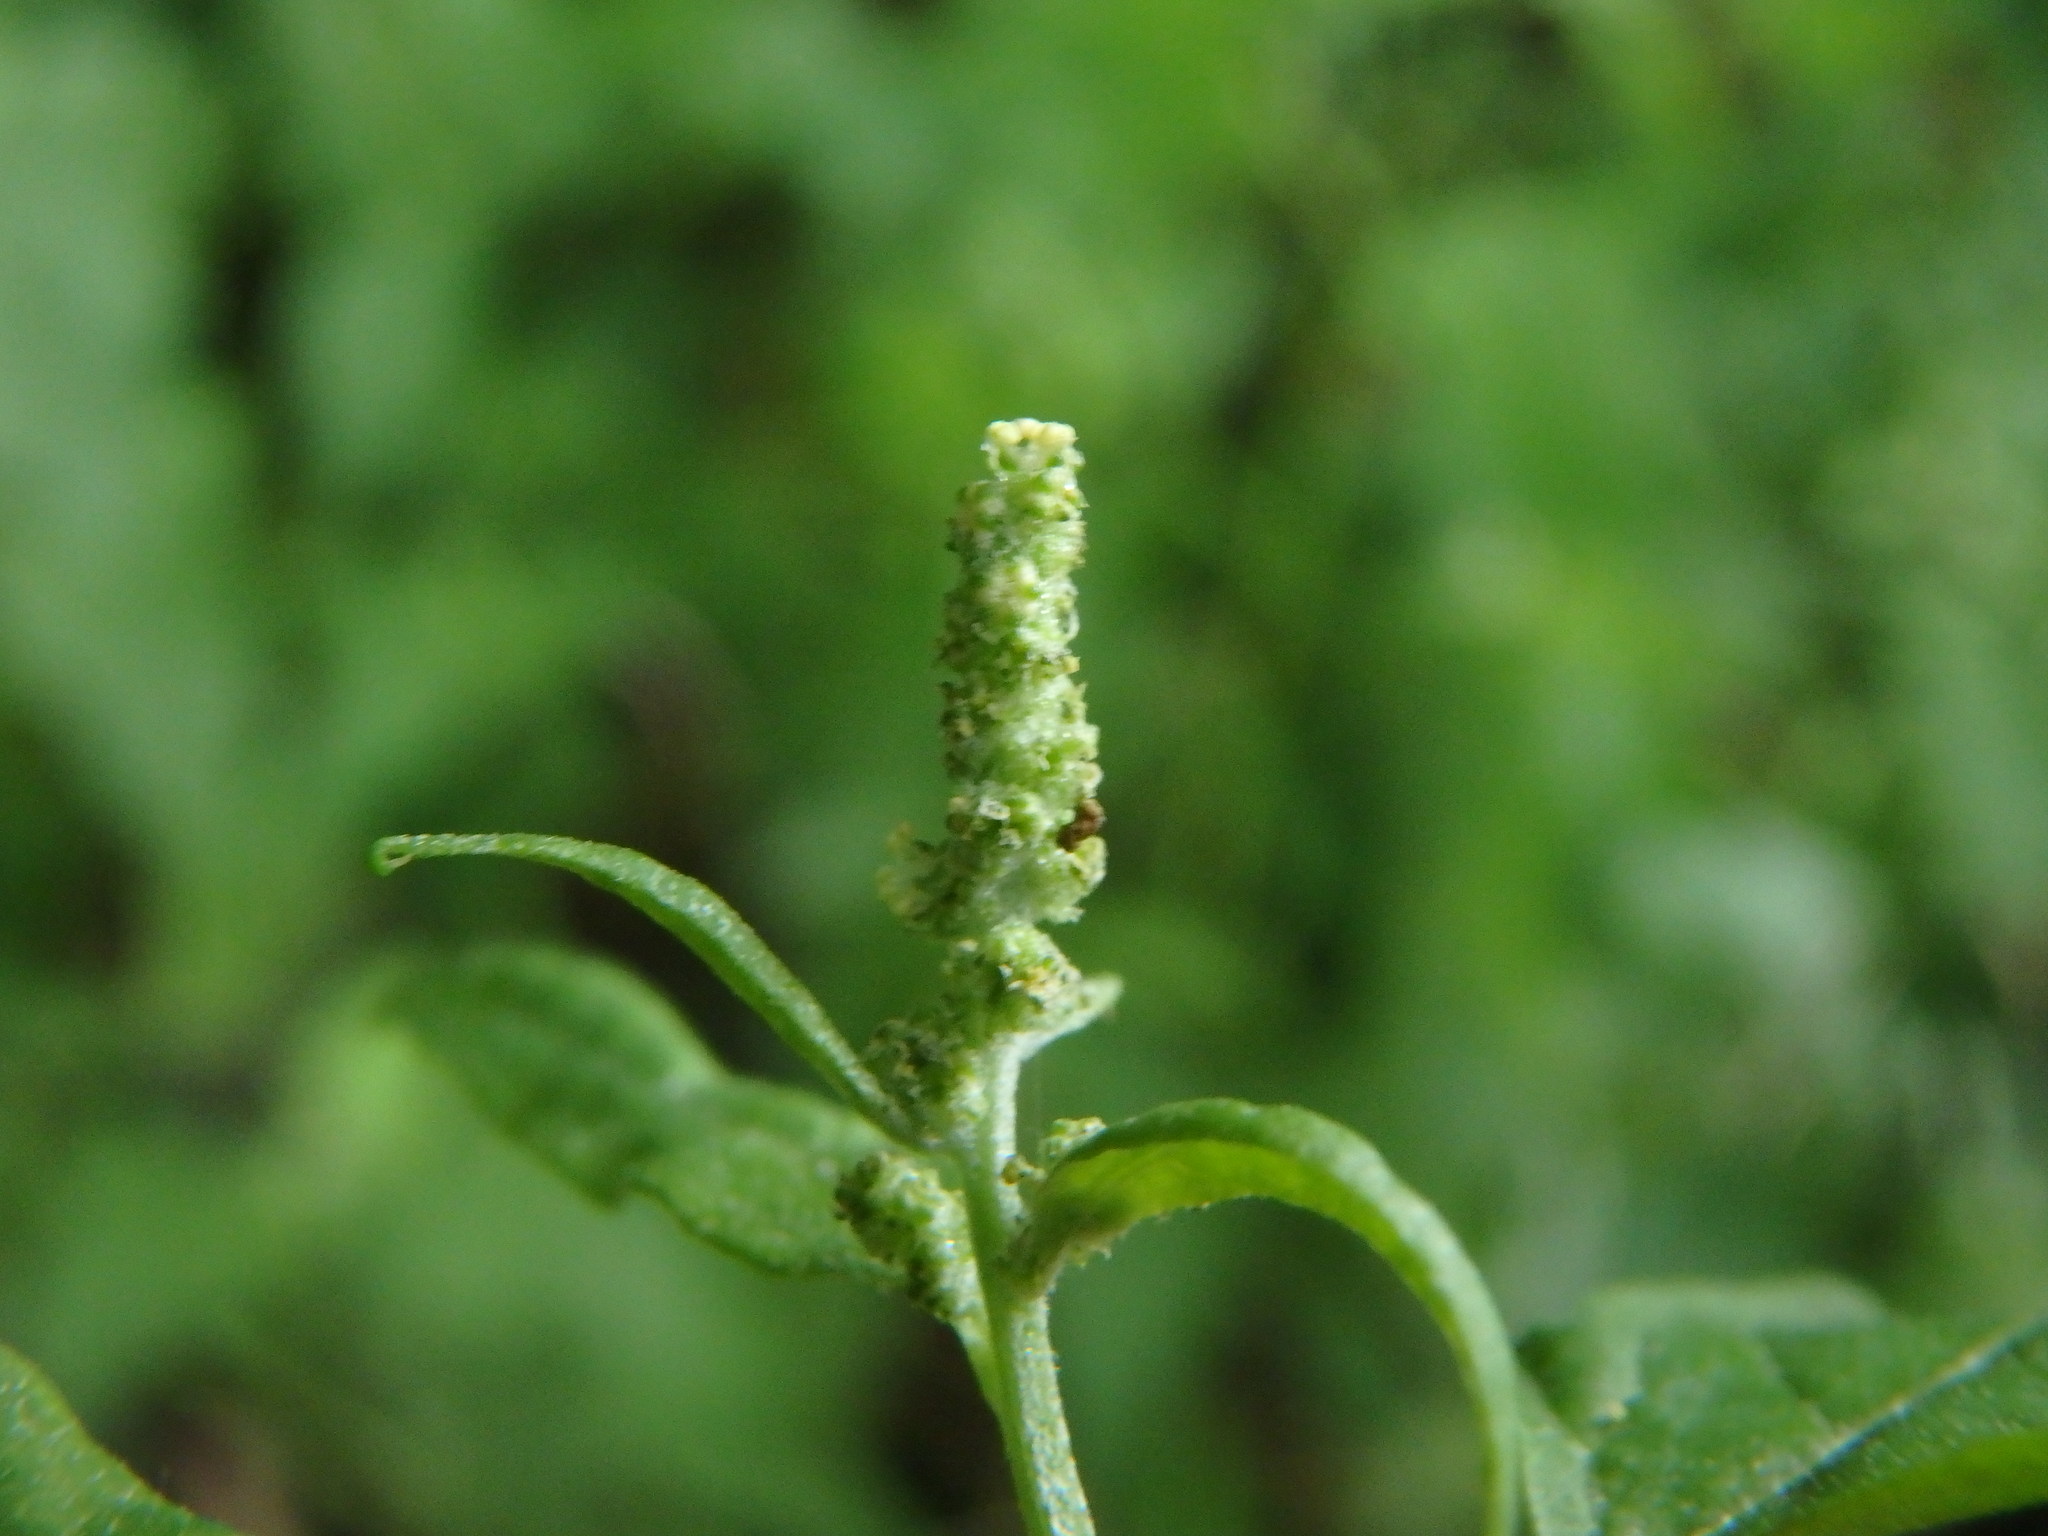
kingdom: Plantae
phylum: Tracheophyta
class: Magnoliopsida
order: Caryophyllales
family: Amaranthaceae
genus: Atriplex
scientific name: Atriplex prostrata
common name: Spear-leaved orache
